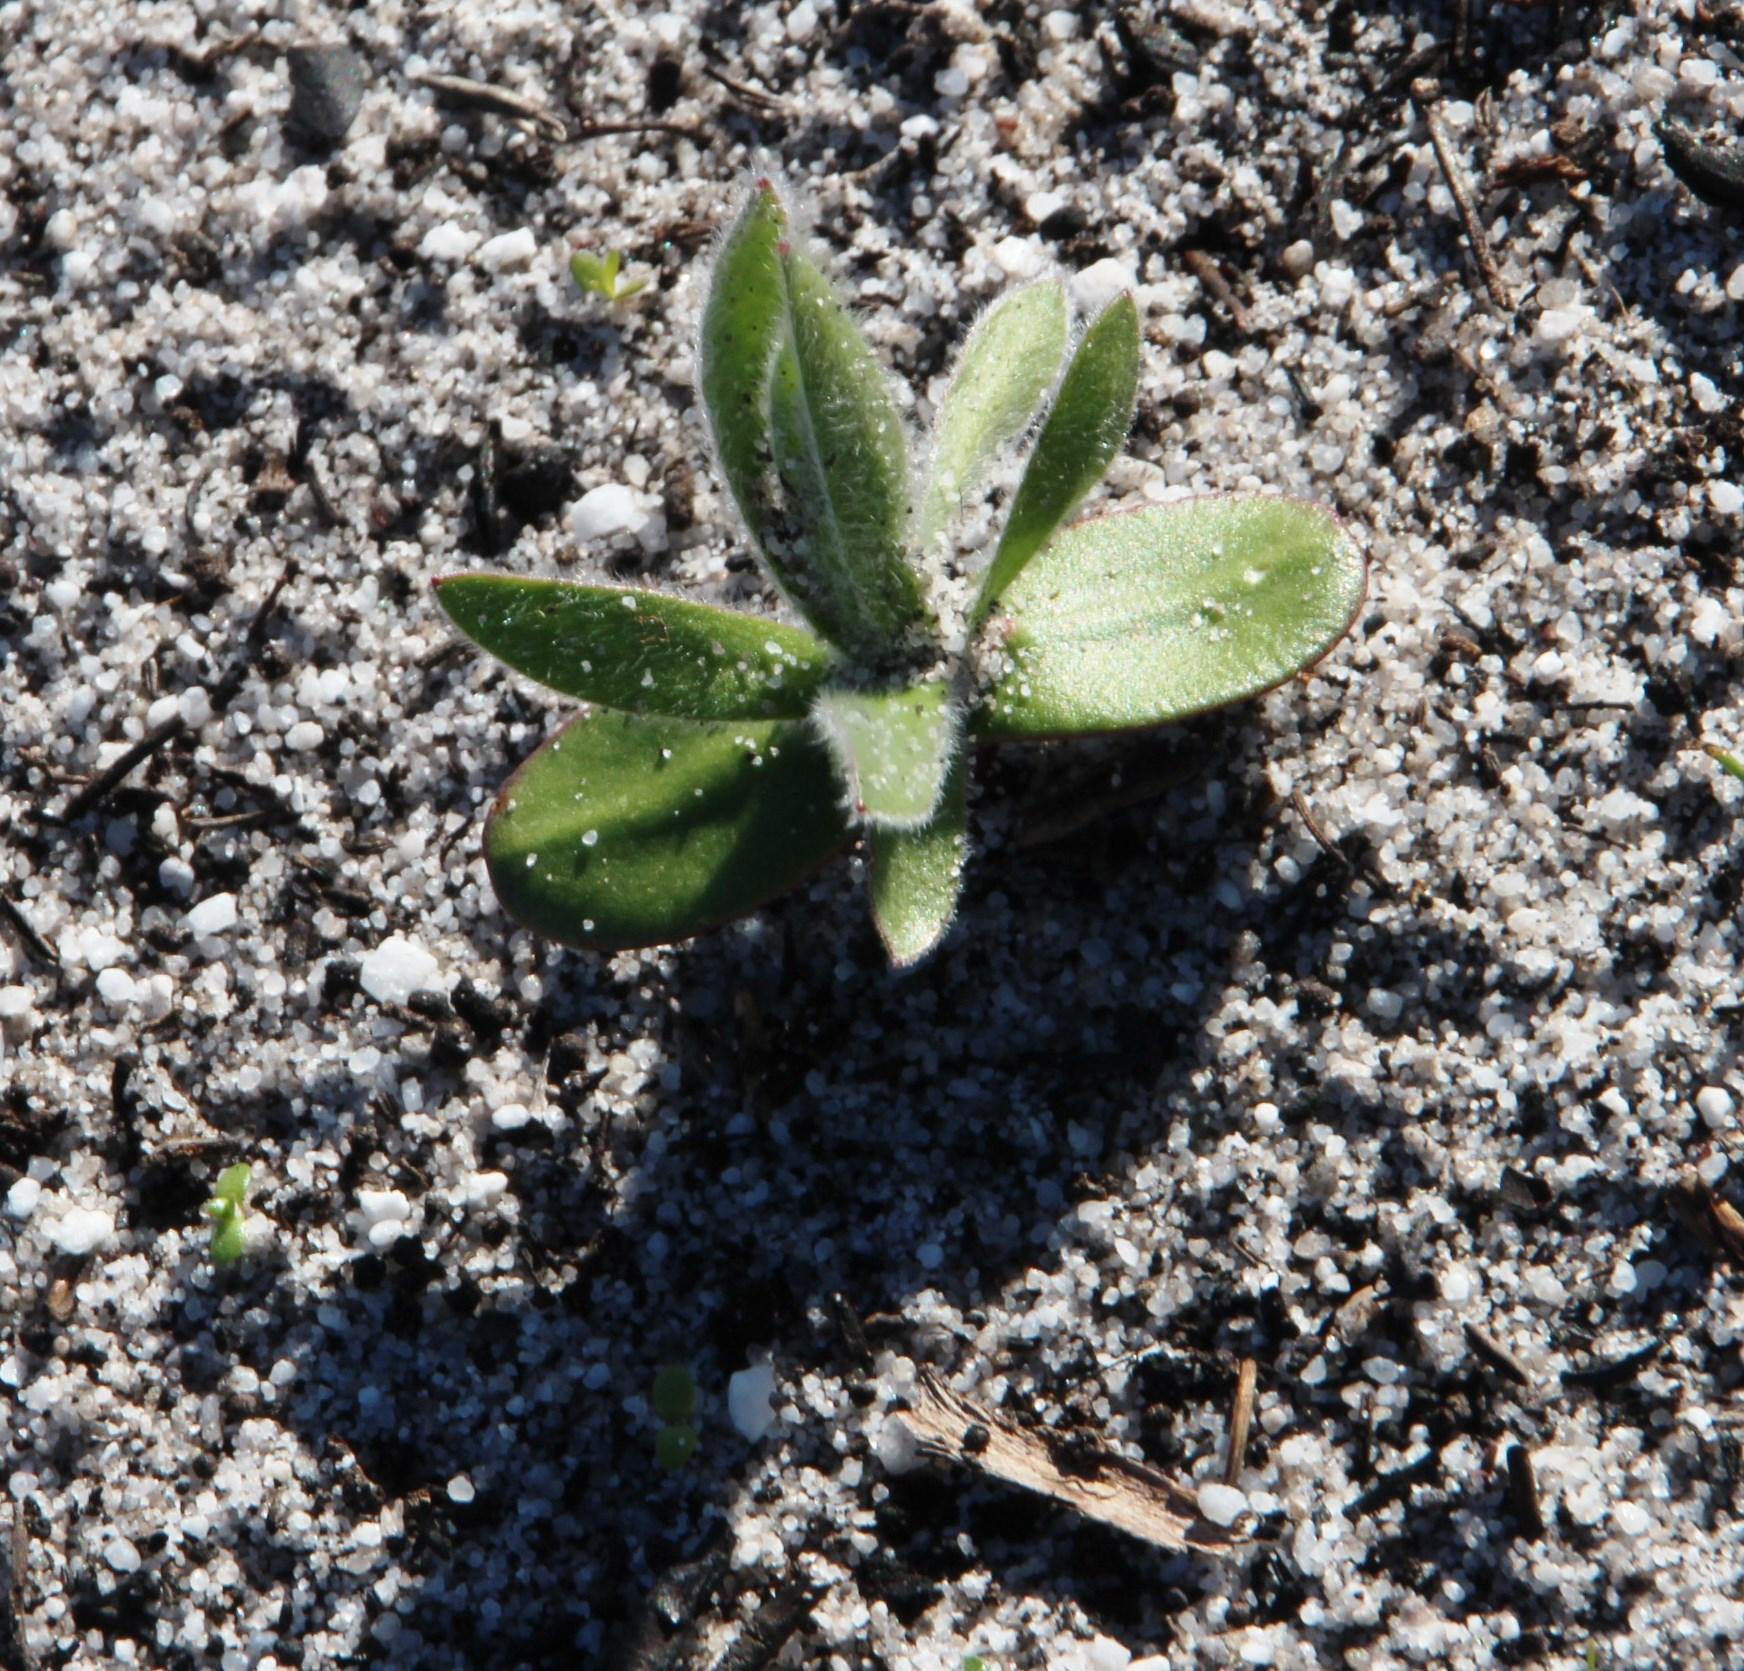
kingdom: Plantae
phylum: Tracheophyta
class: Magnoliopsida
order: Proteales
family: Proteaceae
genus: Mimetes
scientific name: Mimetes fimbriifolius
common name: Fringed bottlebrush
